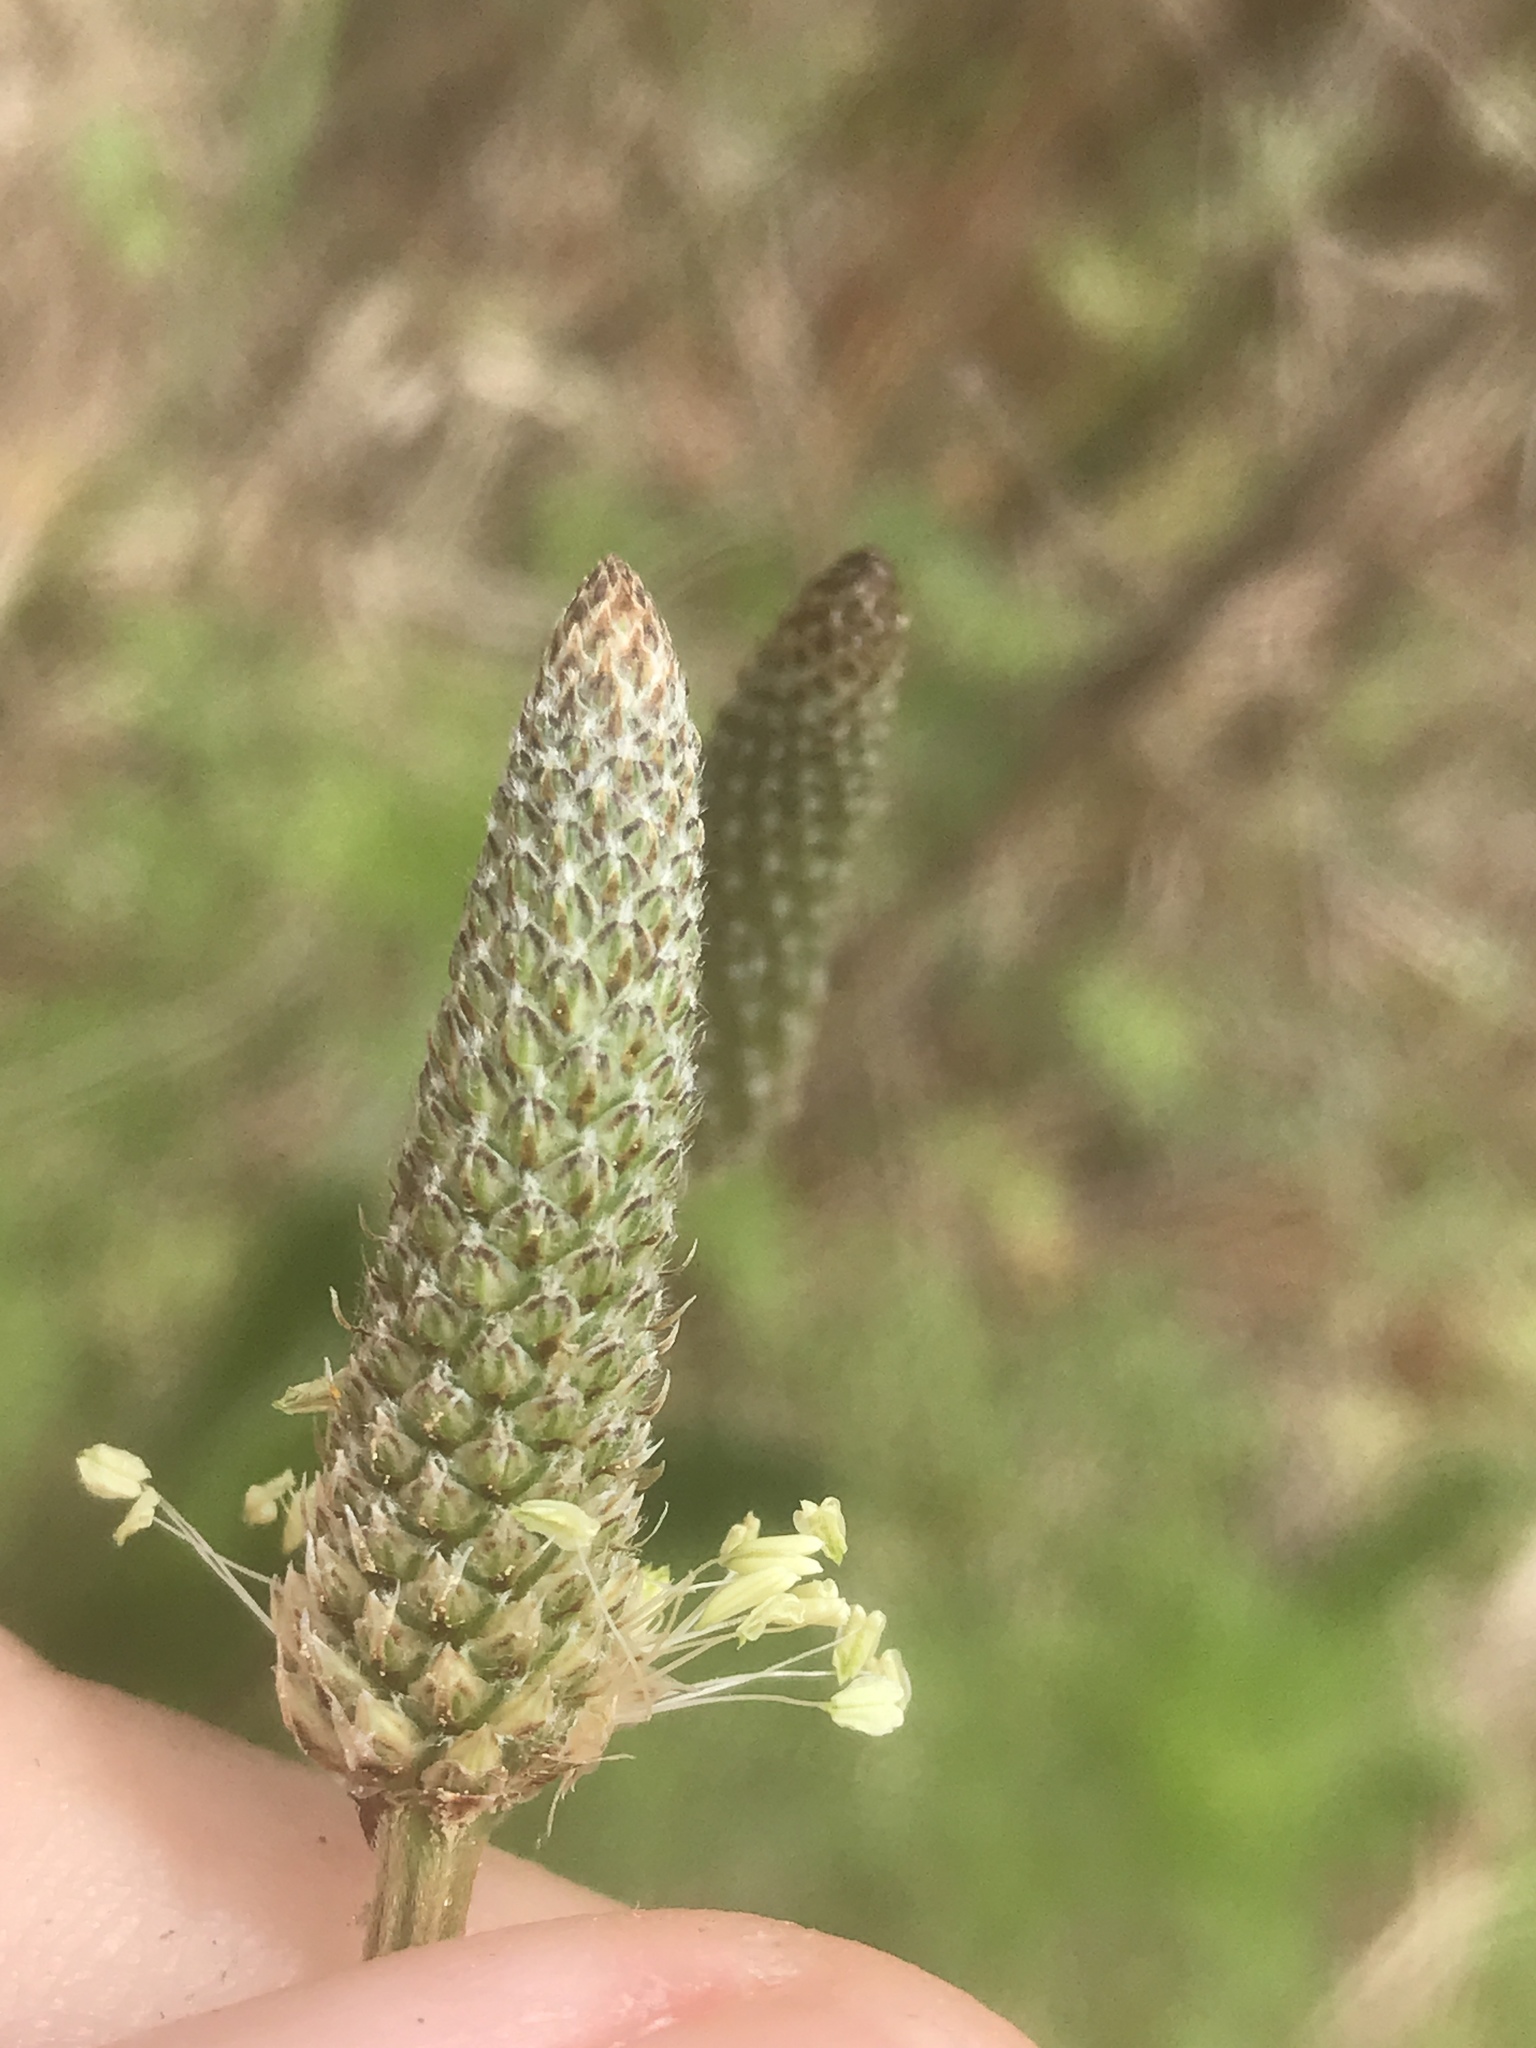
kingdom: Plantae
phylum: Tracheophyta
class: Magnoliopsida
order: Lamiales
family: Plantaginaceae
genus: Plantago
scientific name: Plantago lanceolata
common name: Ribwort plantain
